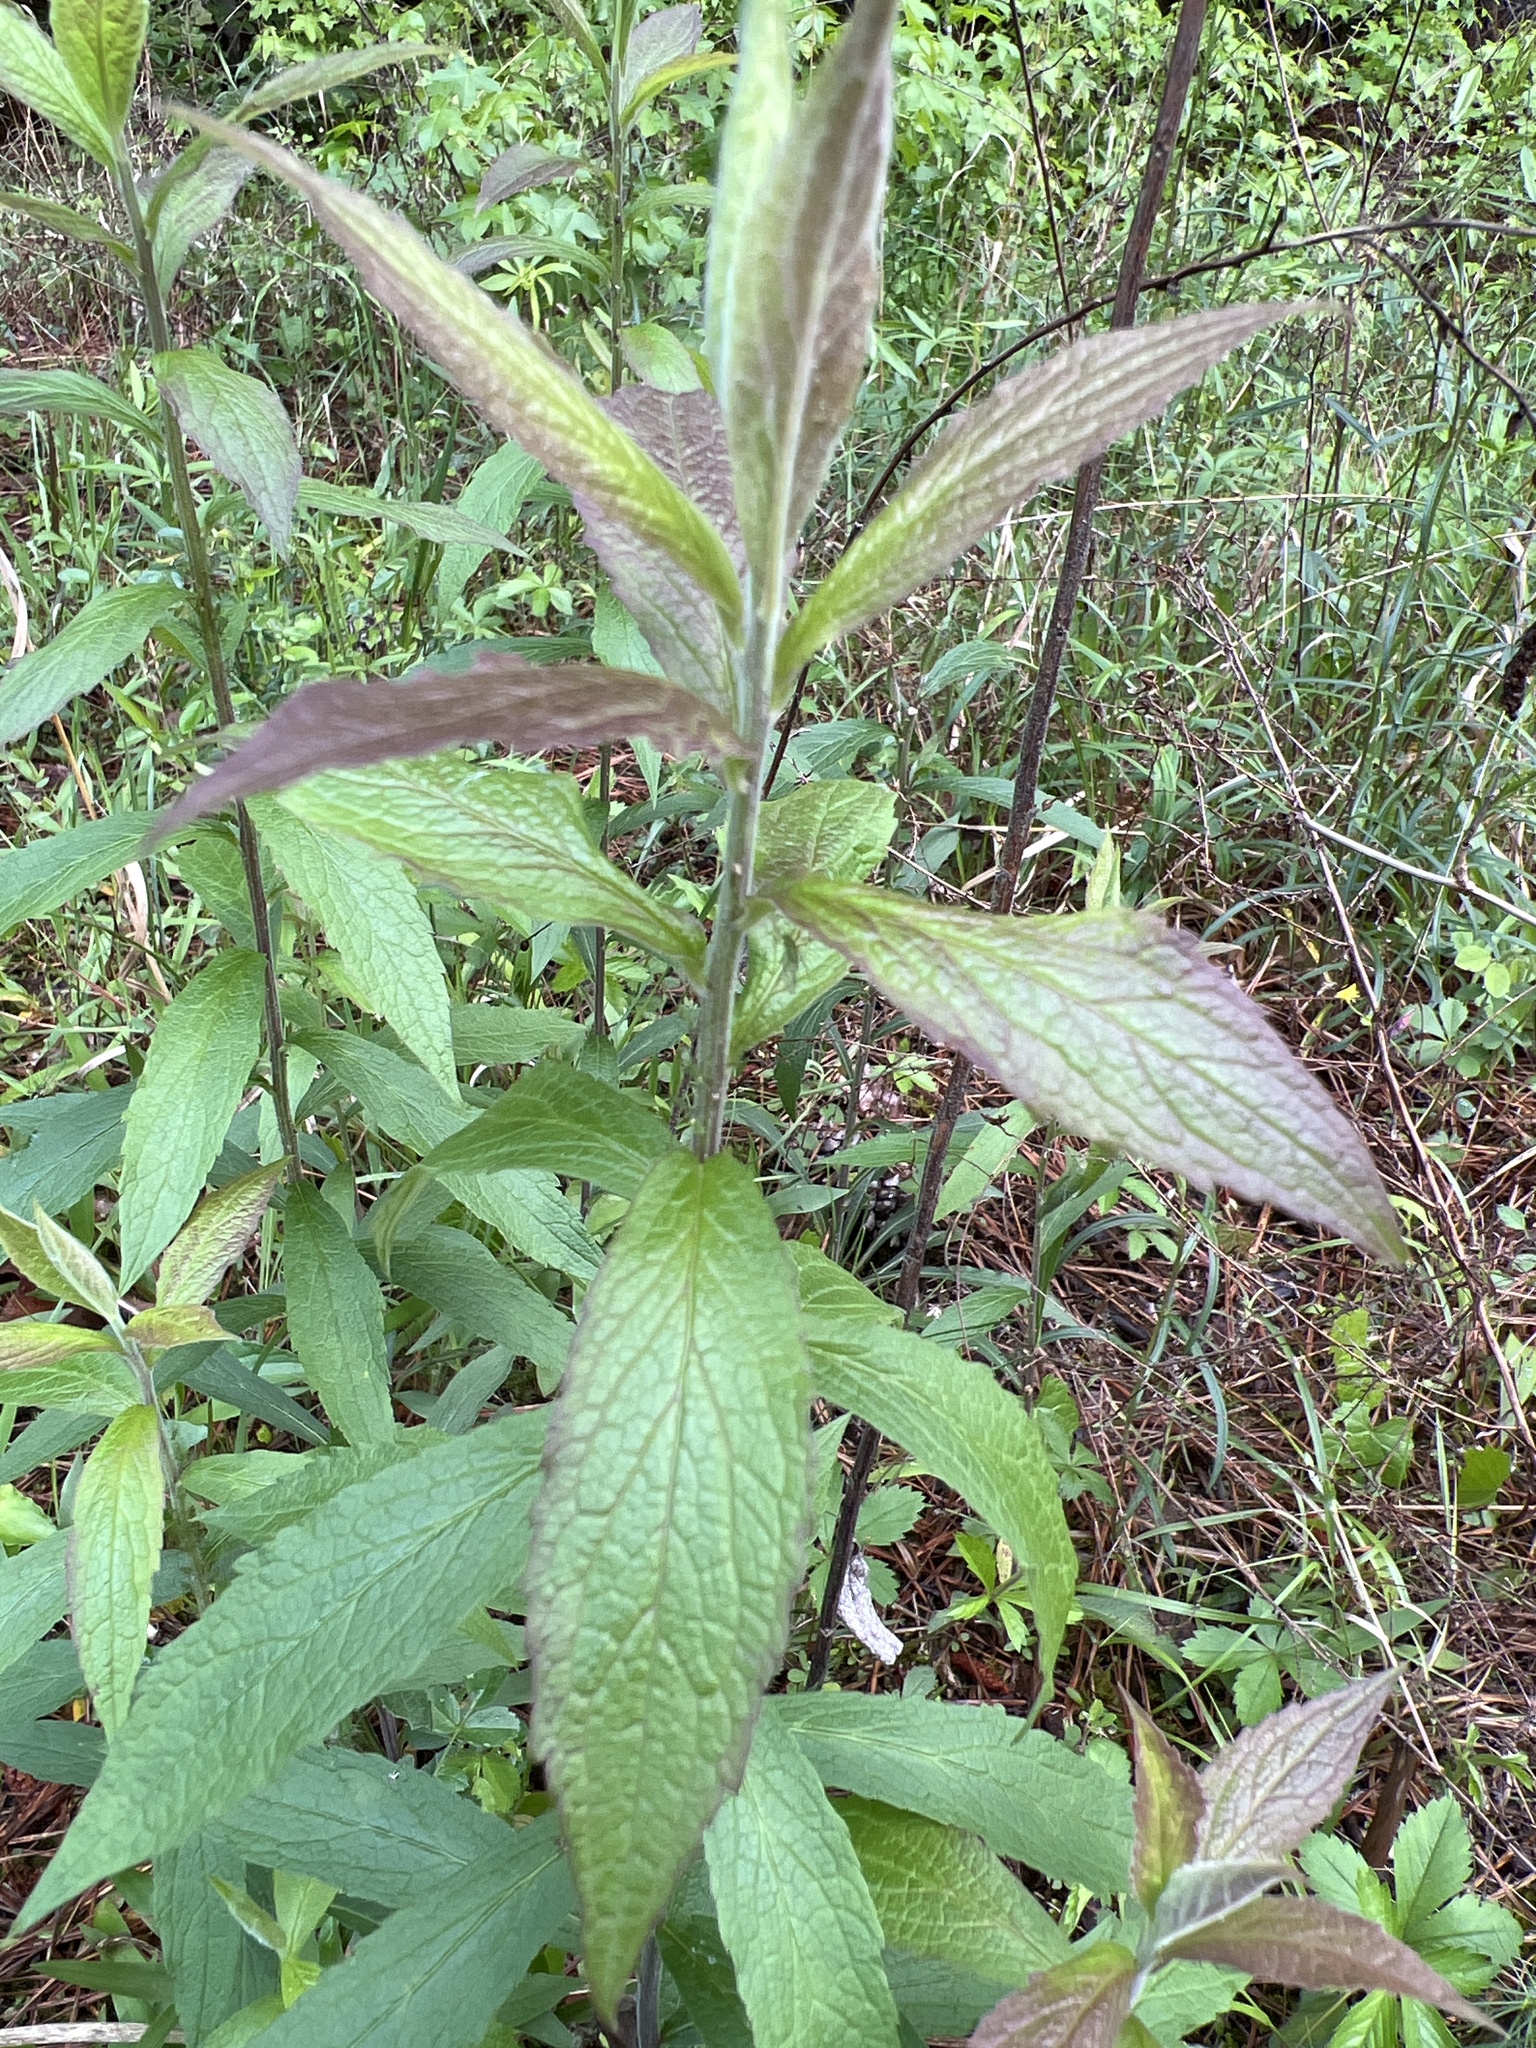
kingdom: Plantae
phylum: Tracheophyta
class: Magnoliopsida
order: Asterales
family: Asteraceae
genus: Solidago
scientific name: Solidago rugosa
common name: Rough-stemmed goldenrod
